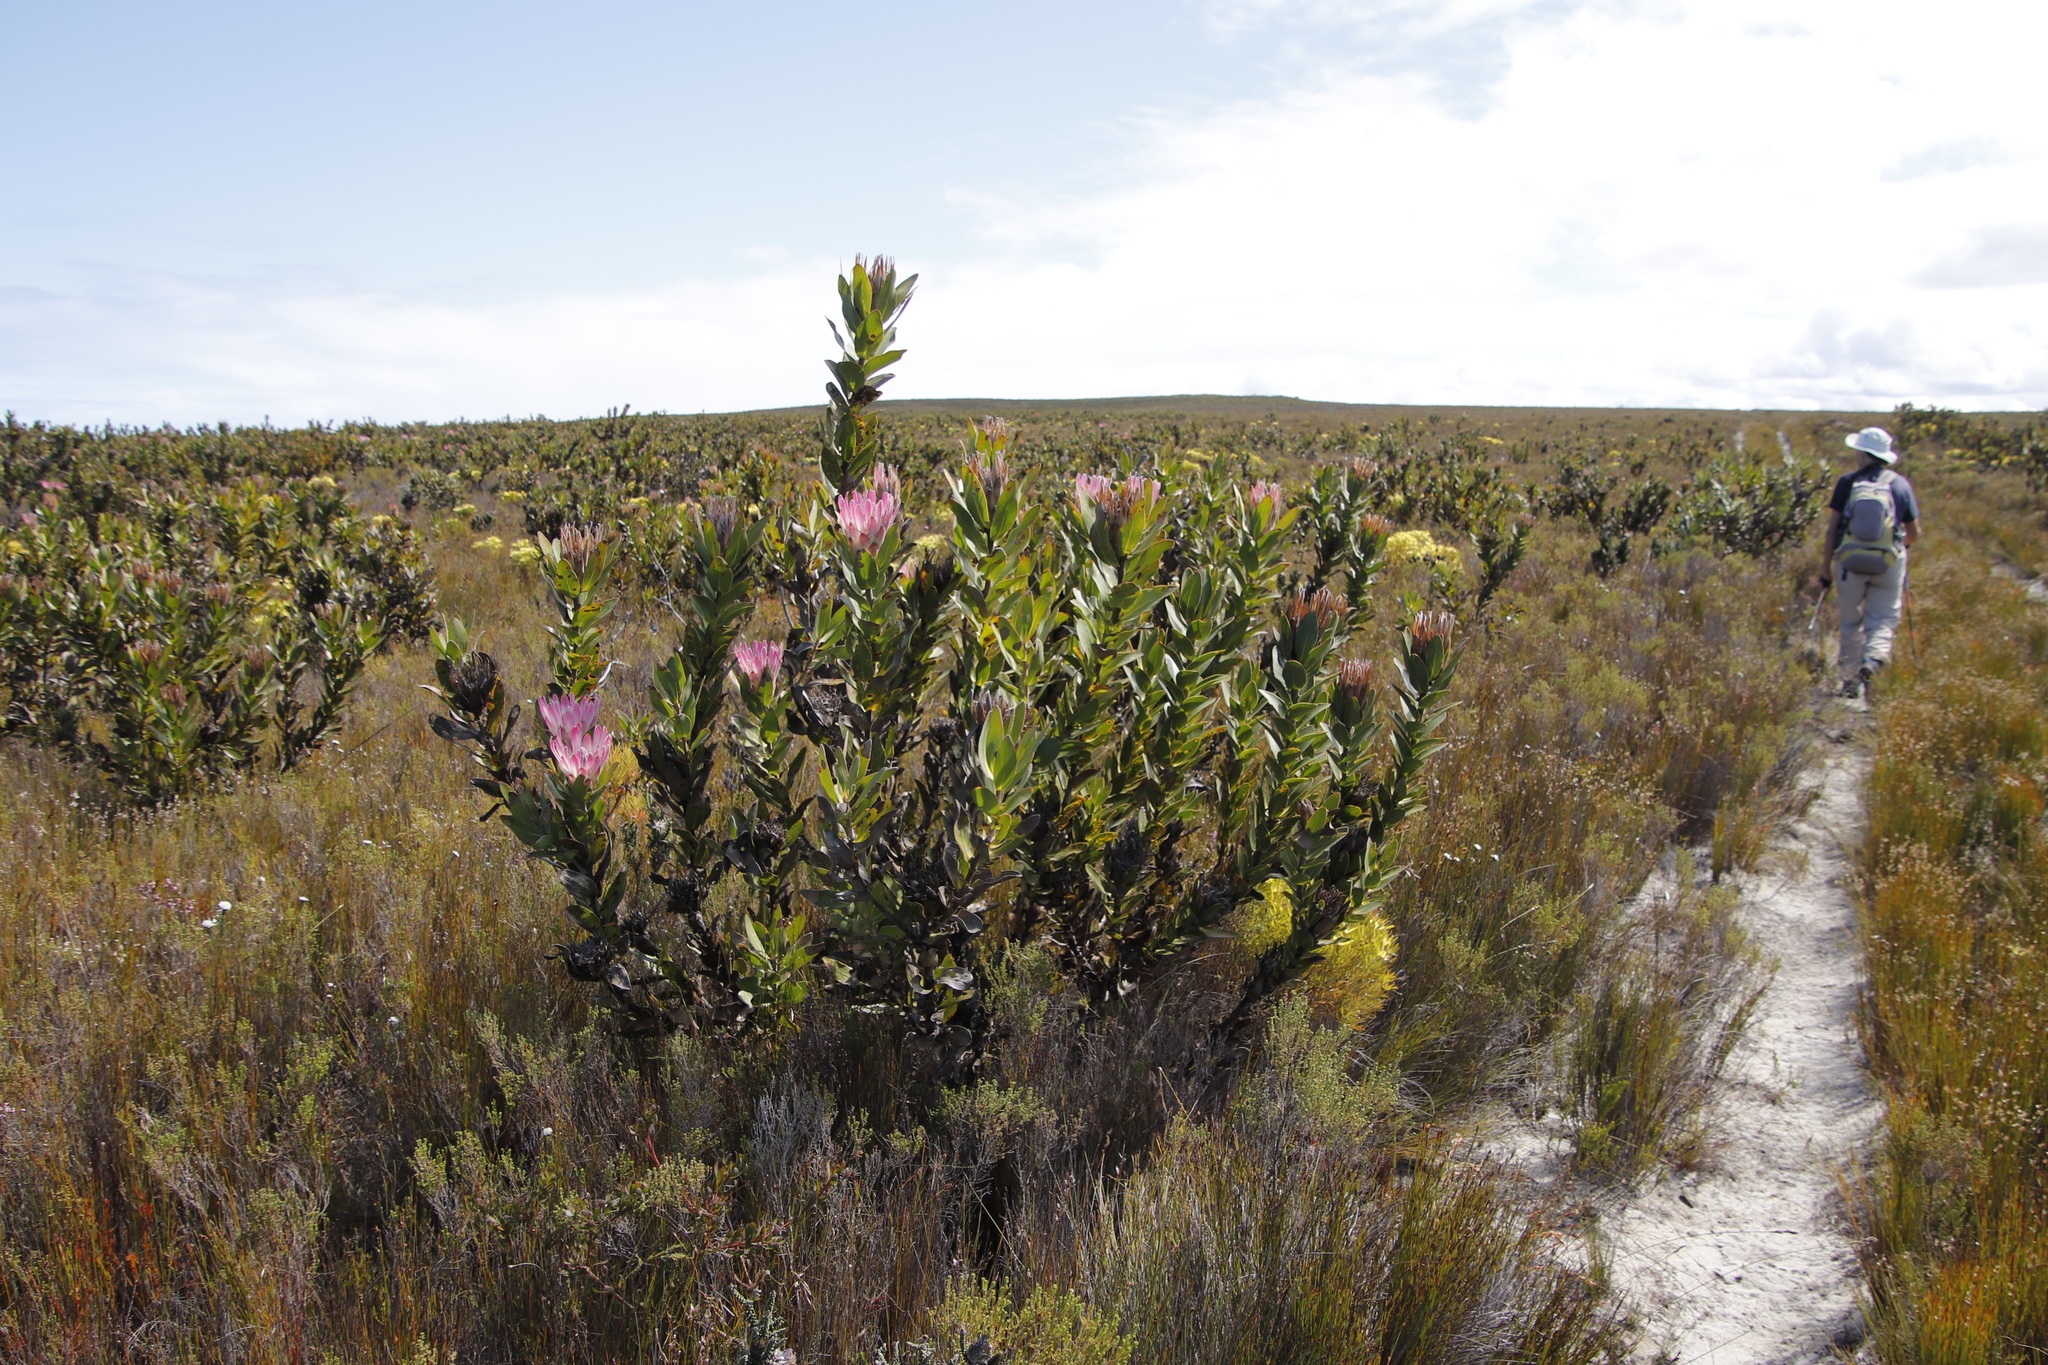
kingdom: Plantae
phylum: Tracheophyta
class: Magnoliopsida
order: Proteales
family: Proteaceae
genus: Protea
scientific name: Protea compacta
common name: Bot river protea
